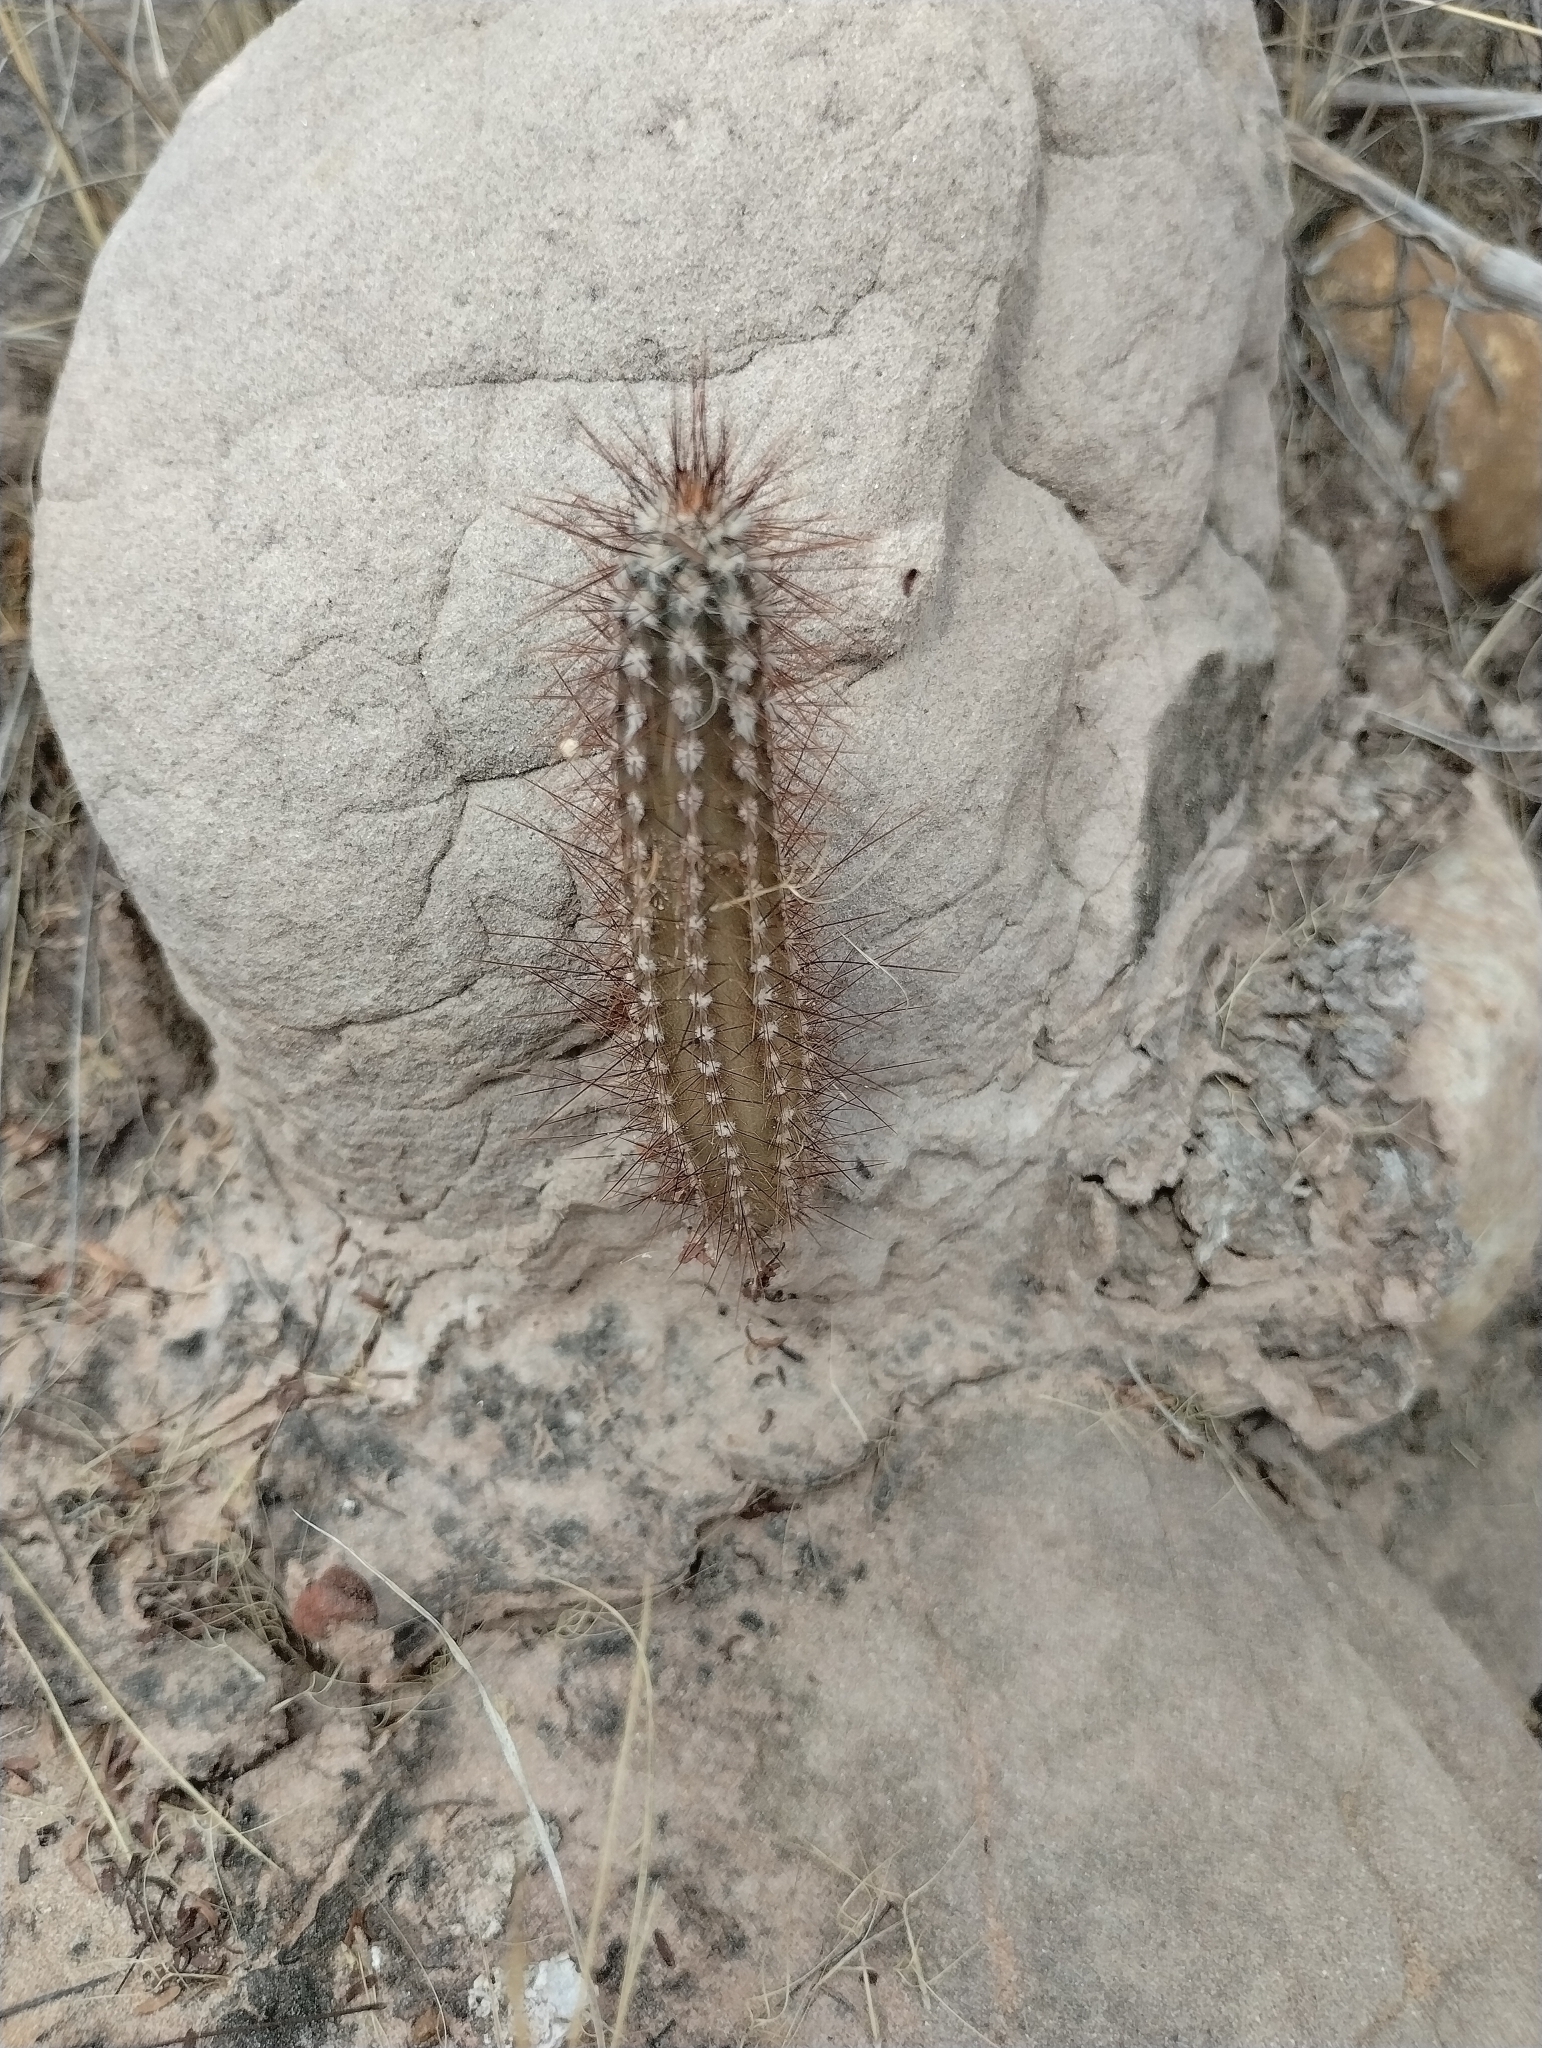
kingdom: Plantae
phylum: Tracheophyta
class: Magnoliopsida
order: Caryophyllales
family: Cactaceae
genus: Cereus
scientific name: Cereus jamacaru
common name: Queen-of-the-night
